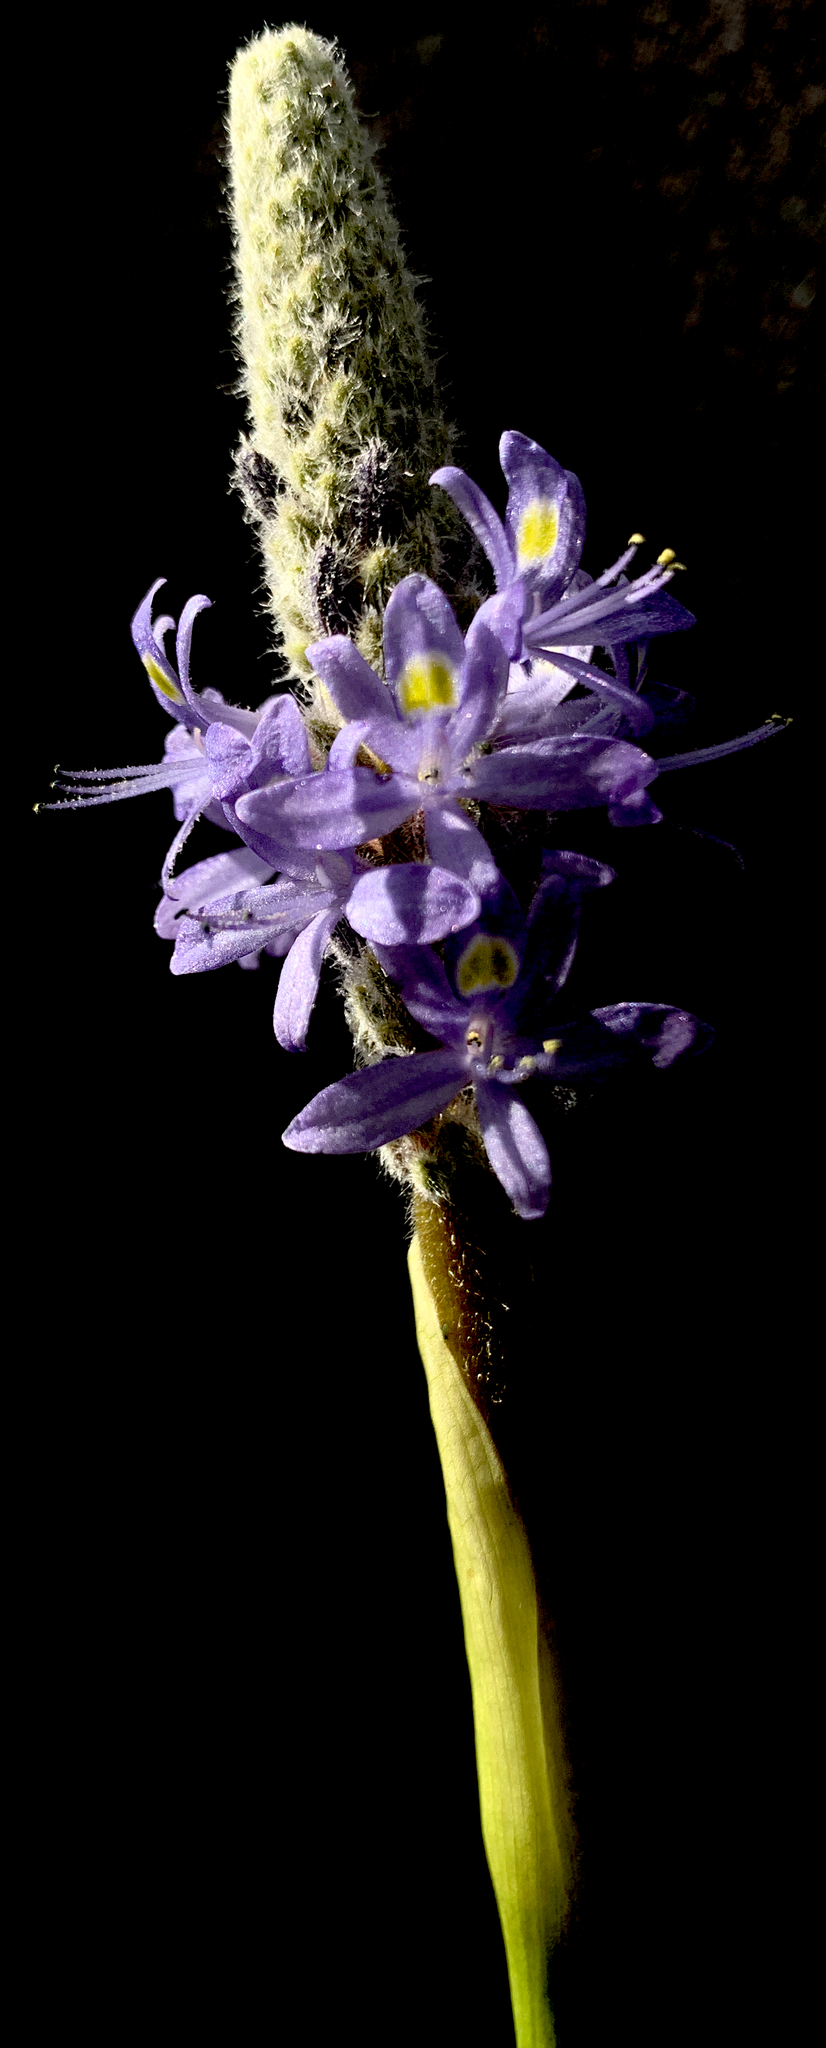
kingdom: Plantae
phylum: Tracheophyta
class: Liliopsida
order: Commelinales
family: Pontederiaceae
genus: Pontederia
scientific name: Pontederia cordata
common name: Pickerelweed
